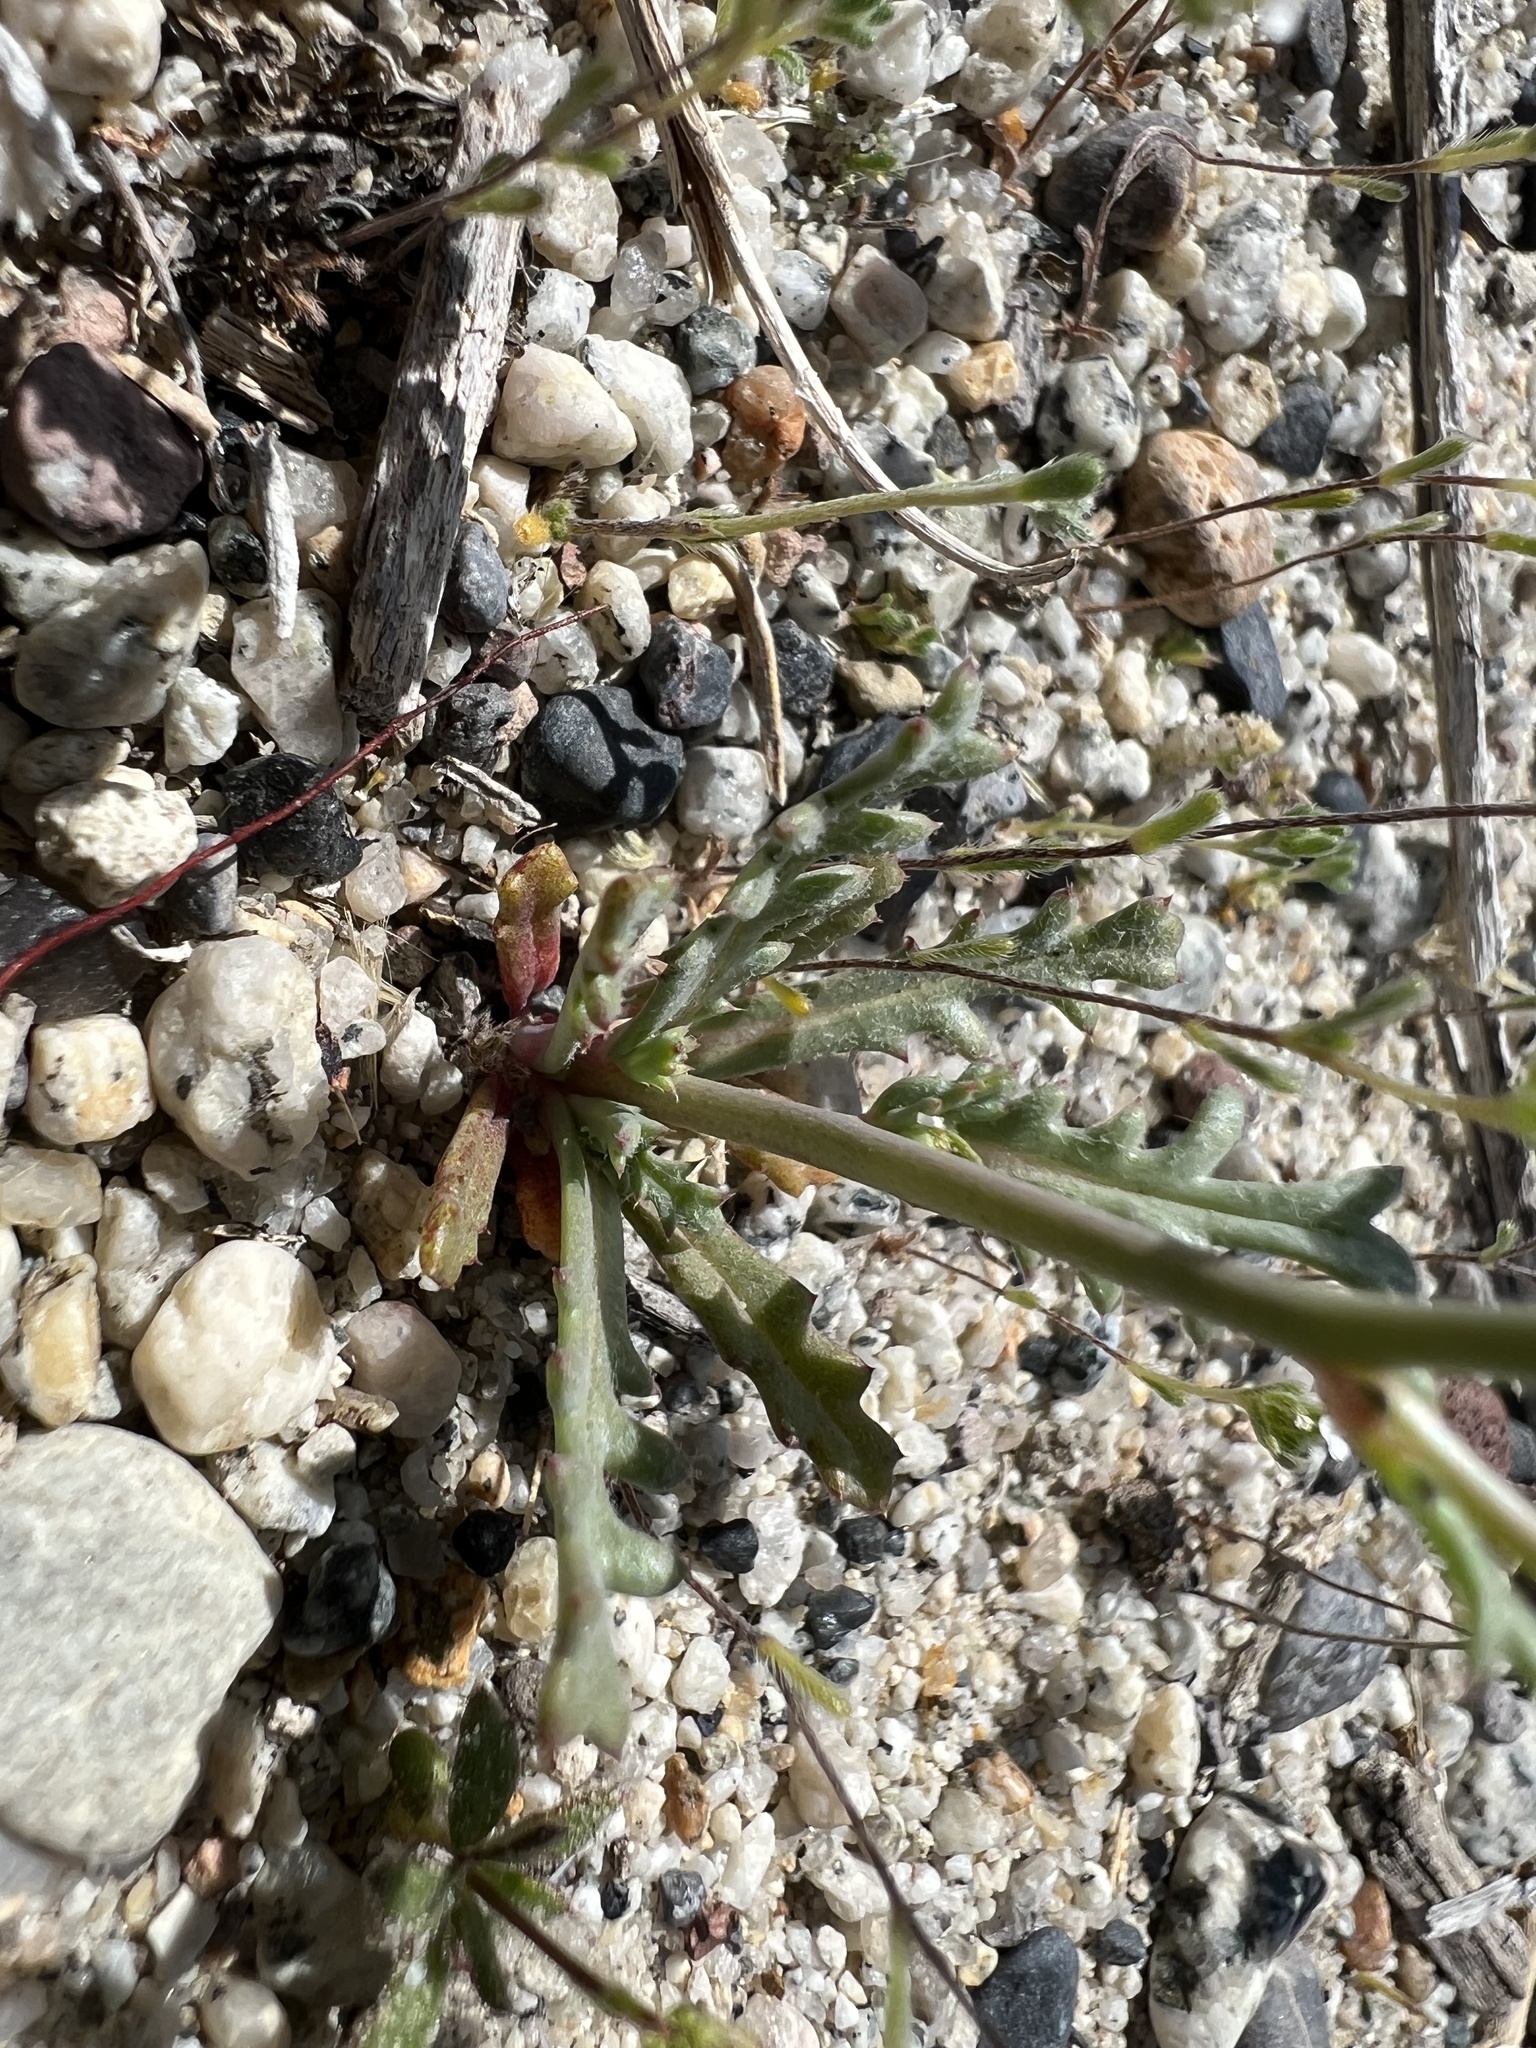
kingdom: Plantae
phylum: Tracheophyta
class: Magnoliopsida
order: Ericales
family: Polemoniaceae
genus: Gilia
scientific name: Gilia sinuata
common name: Rosy gilia
